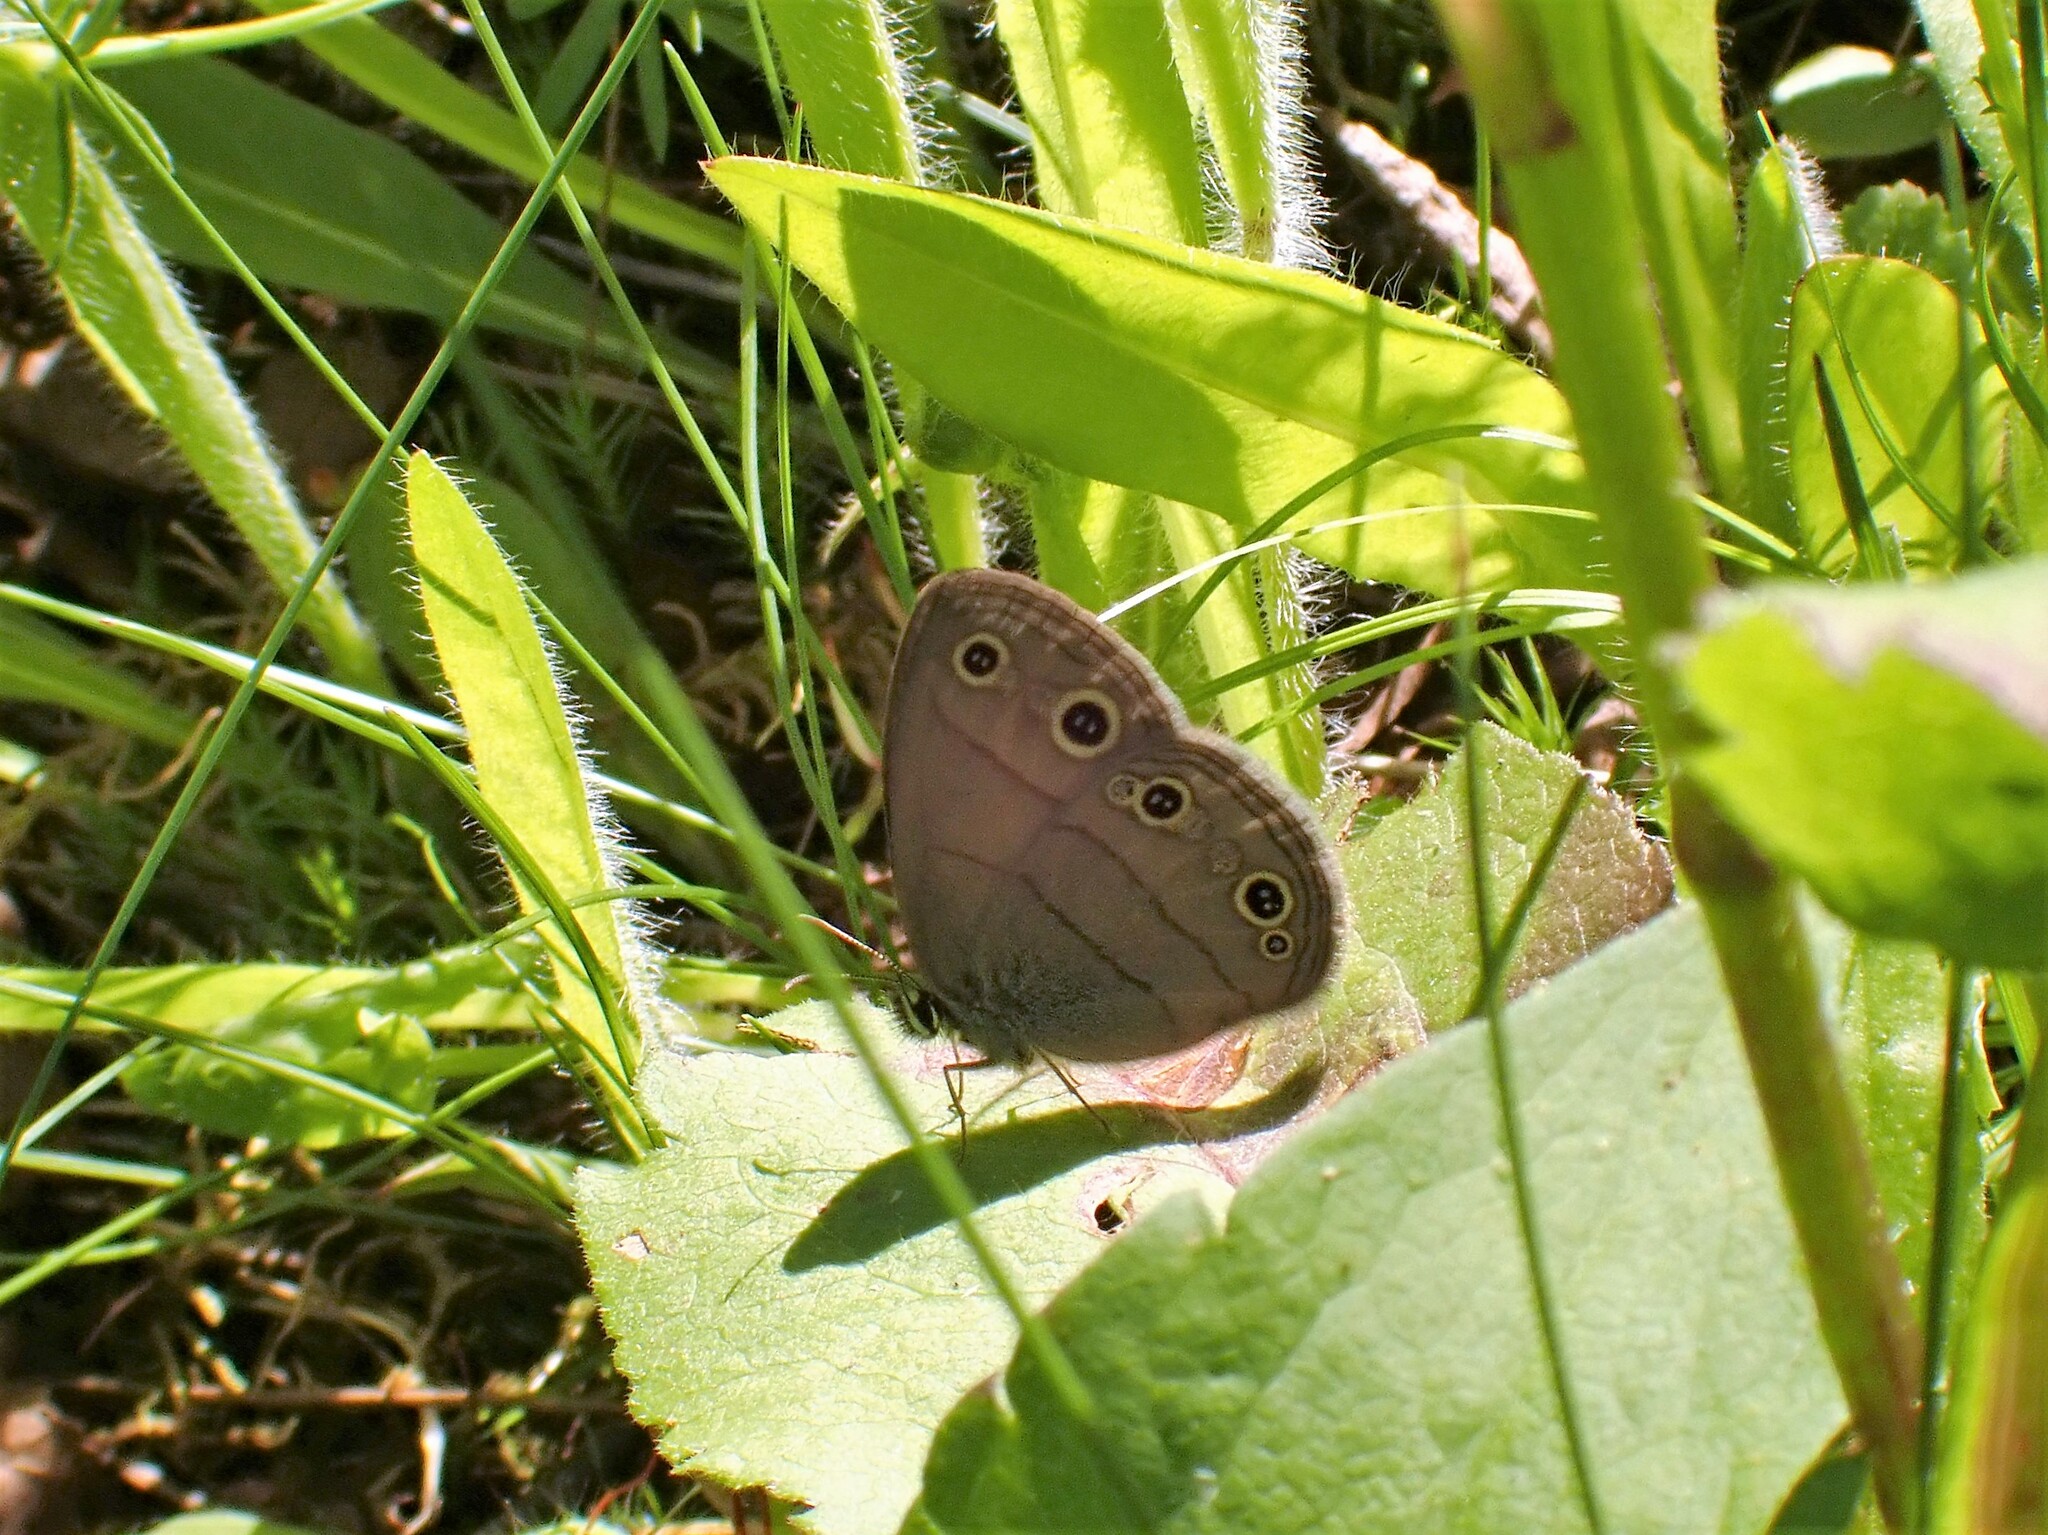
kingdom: Animalia
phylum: Arthropoda
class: Insecta
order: Lepidoptera
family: Nymphalidae
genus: Euptychia
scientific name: Euptychia cymela
